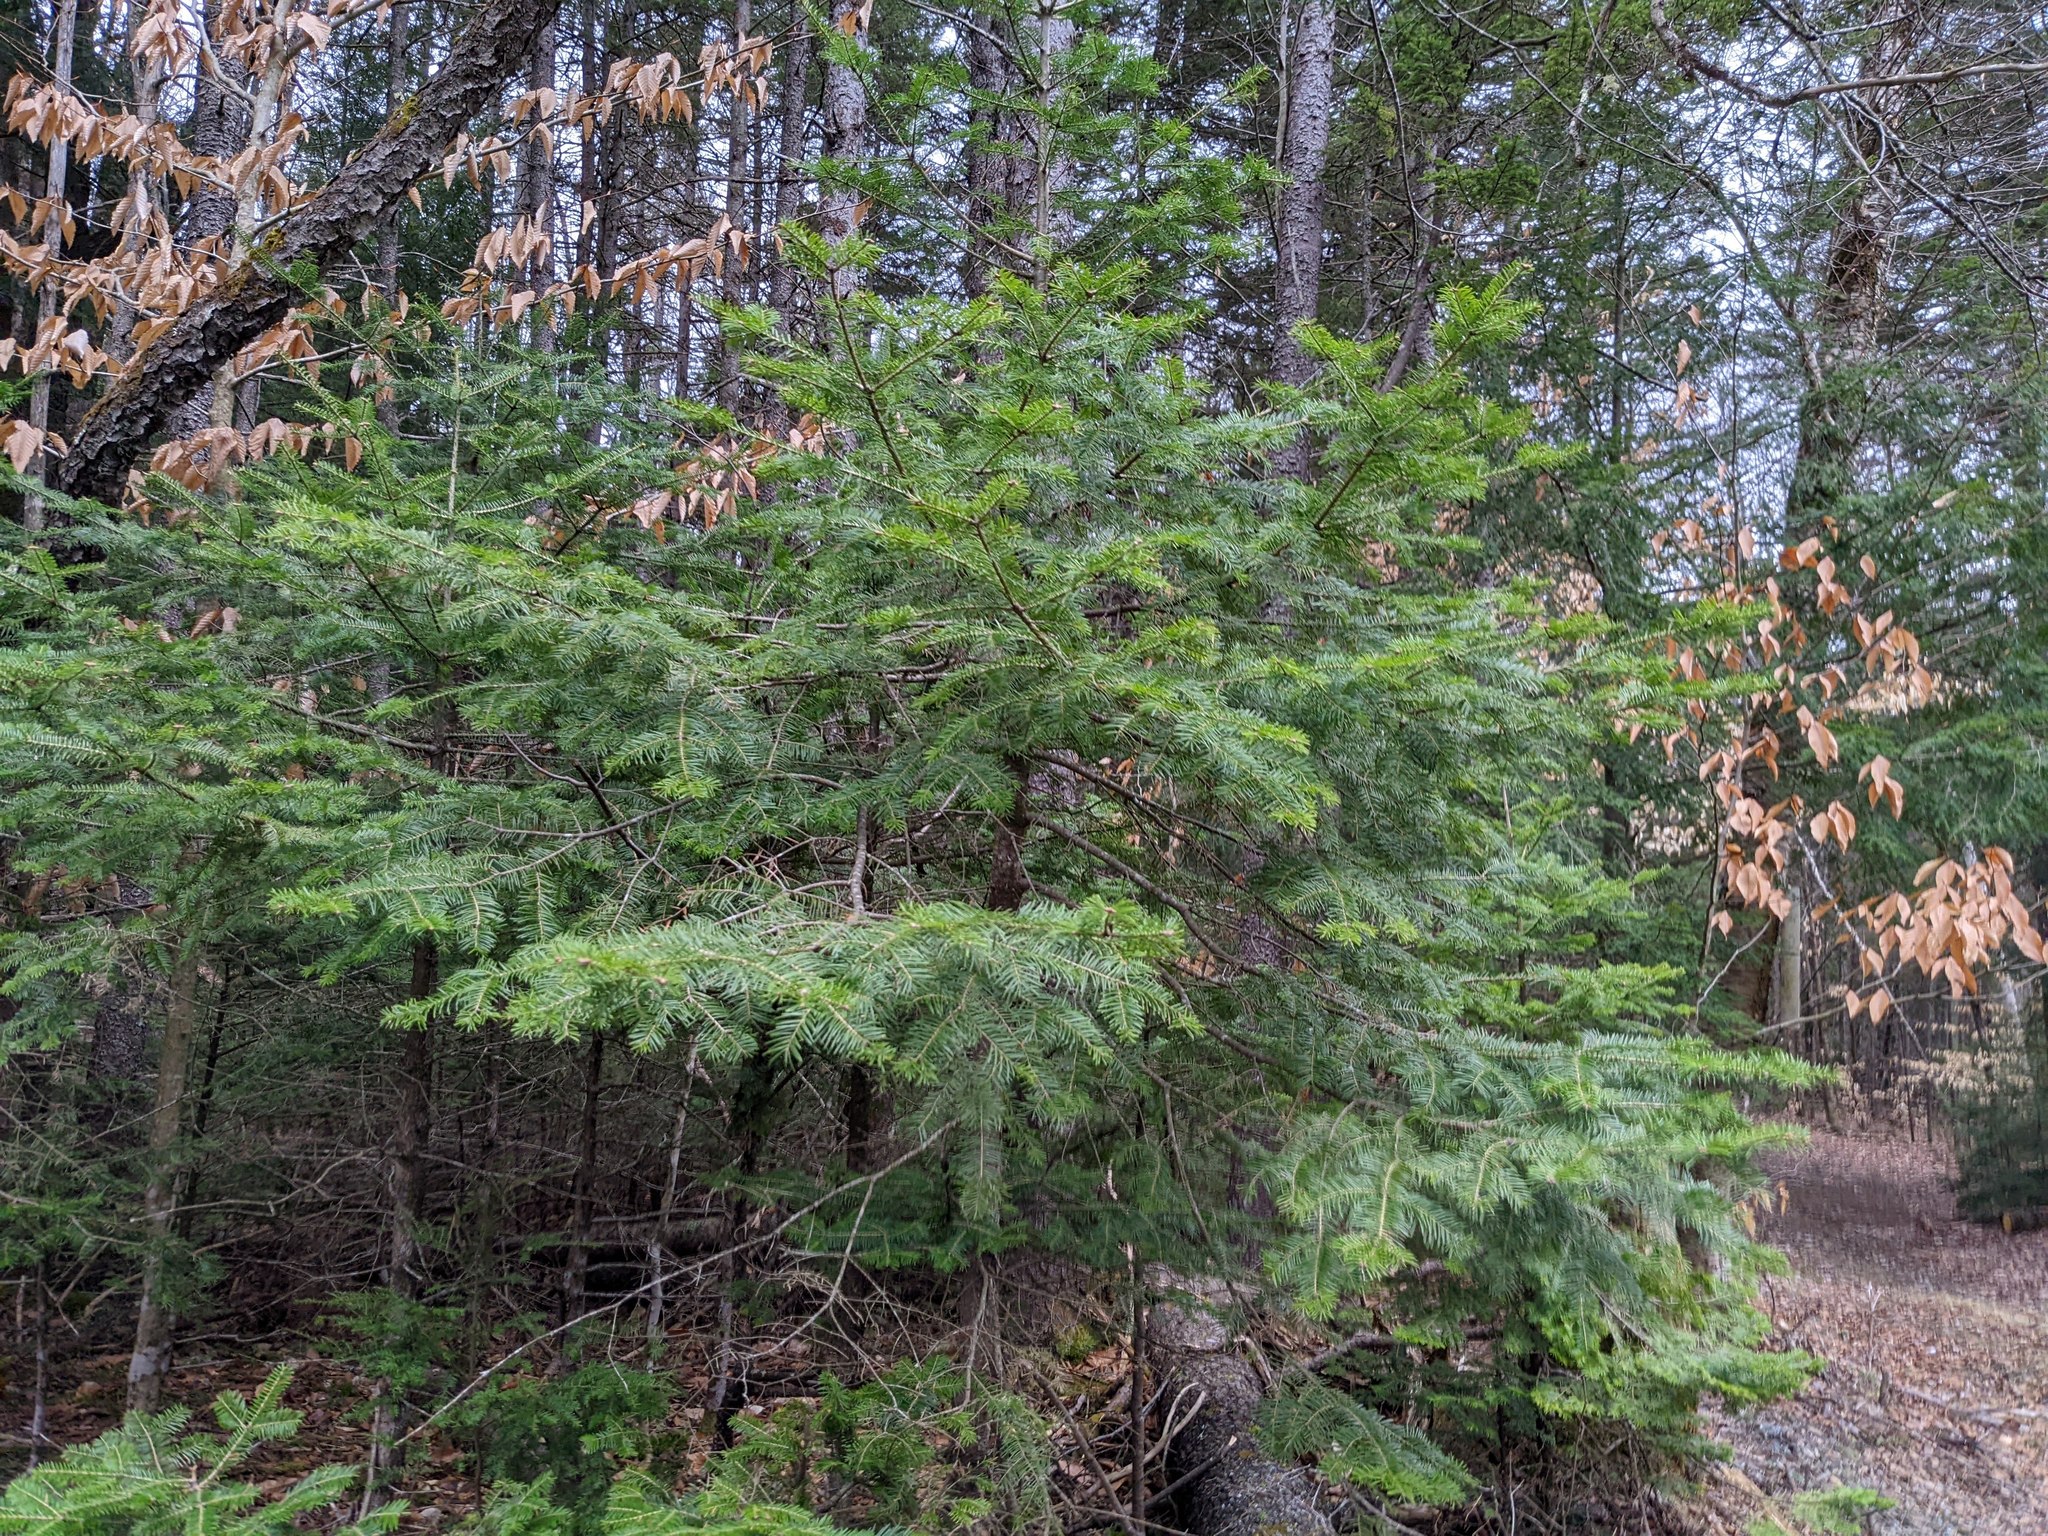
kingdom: Plantae
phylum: Tracheophyta
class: Pinopsida
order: Pinales
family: Pinaceae
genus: Abies
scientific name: Abies balsamea
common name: Balsam fir
